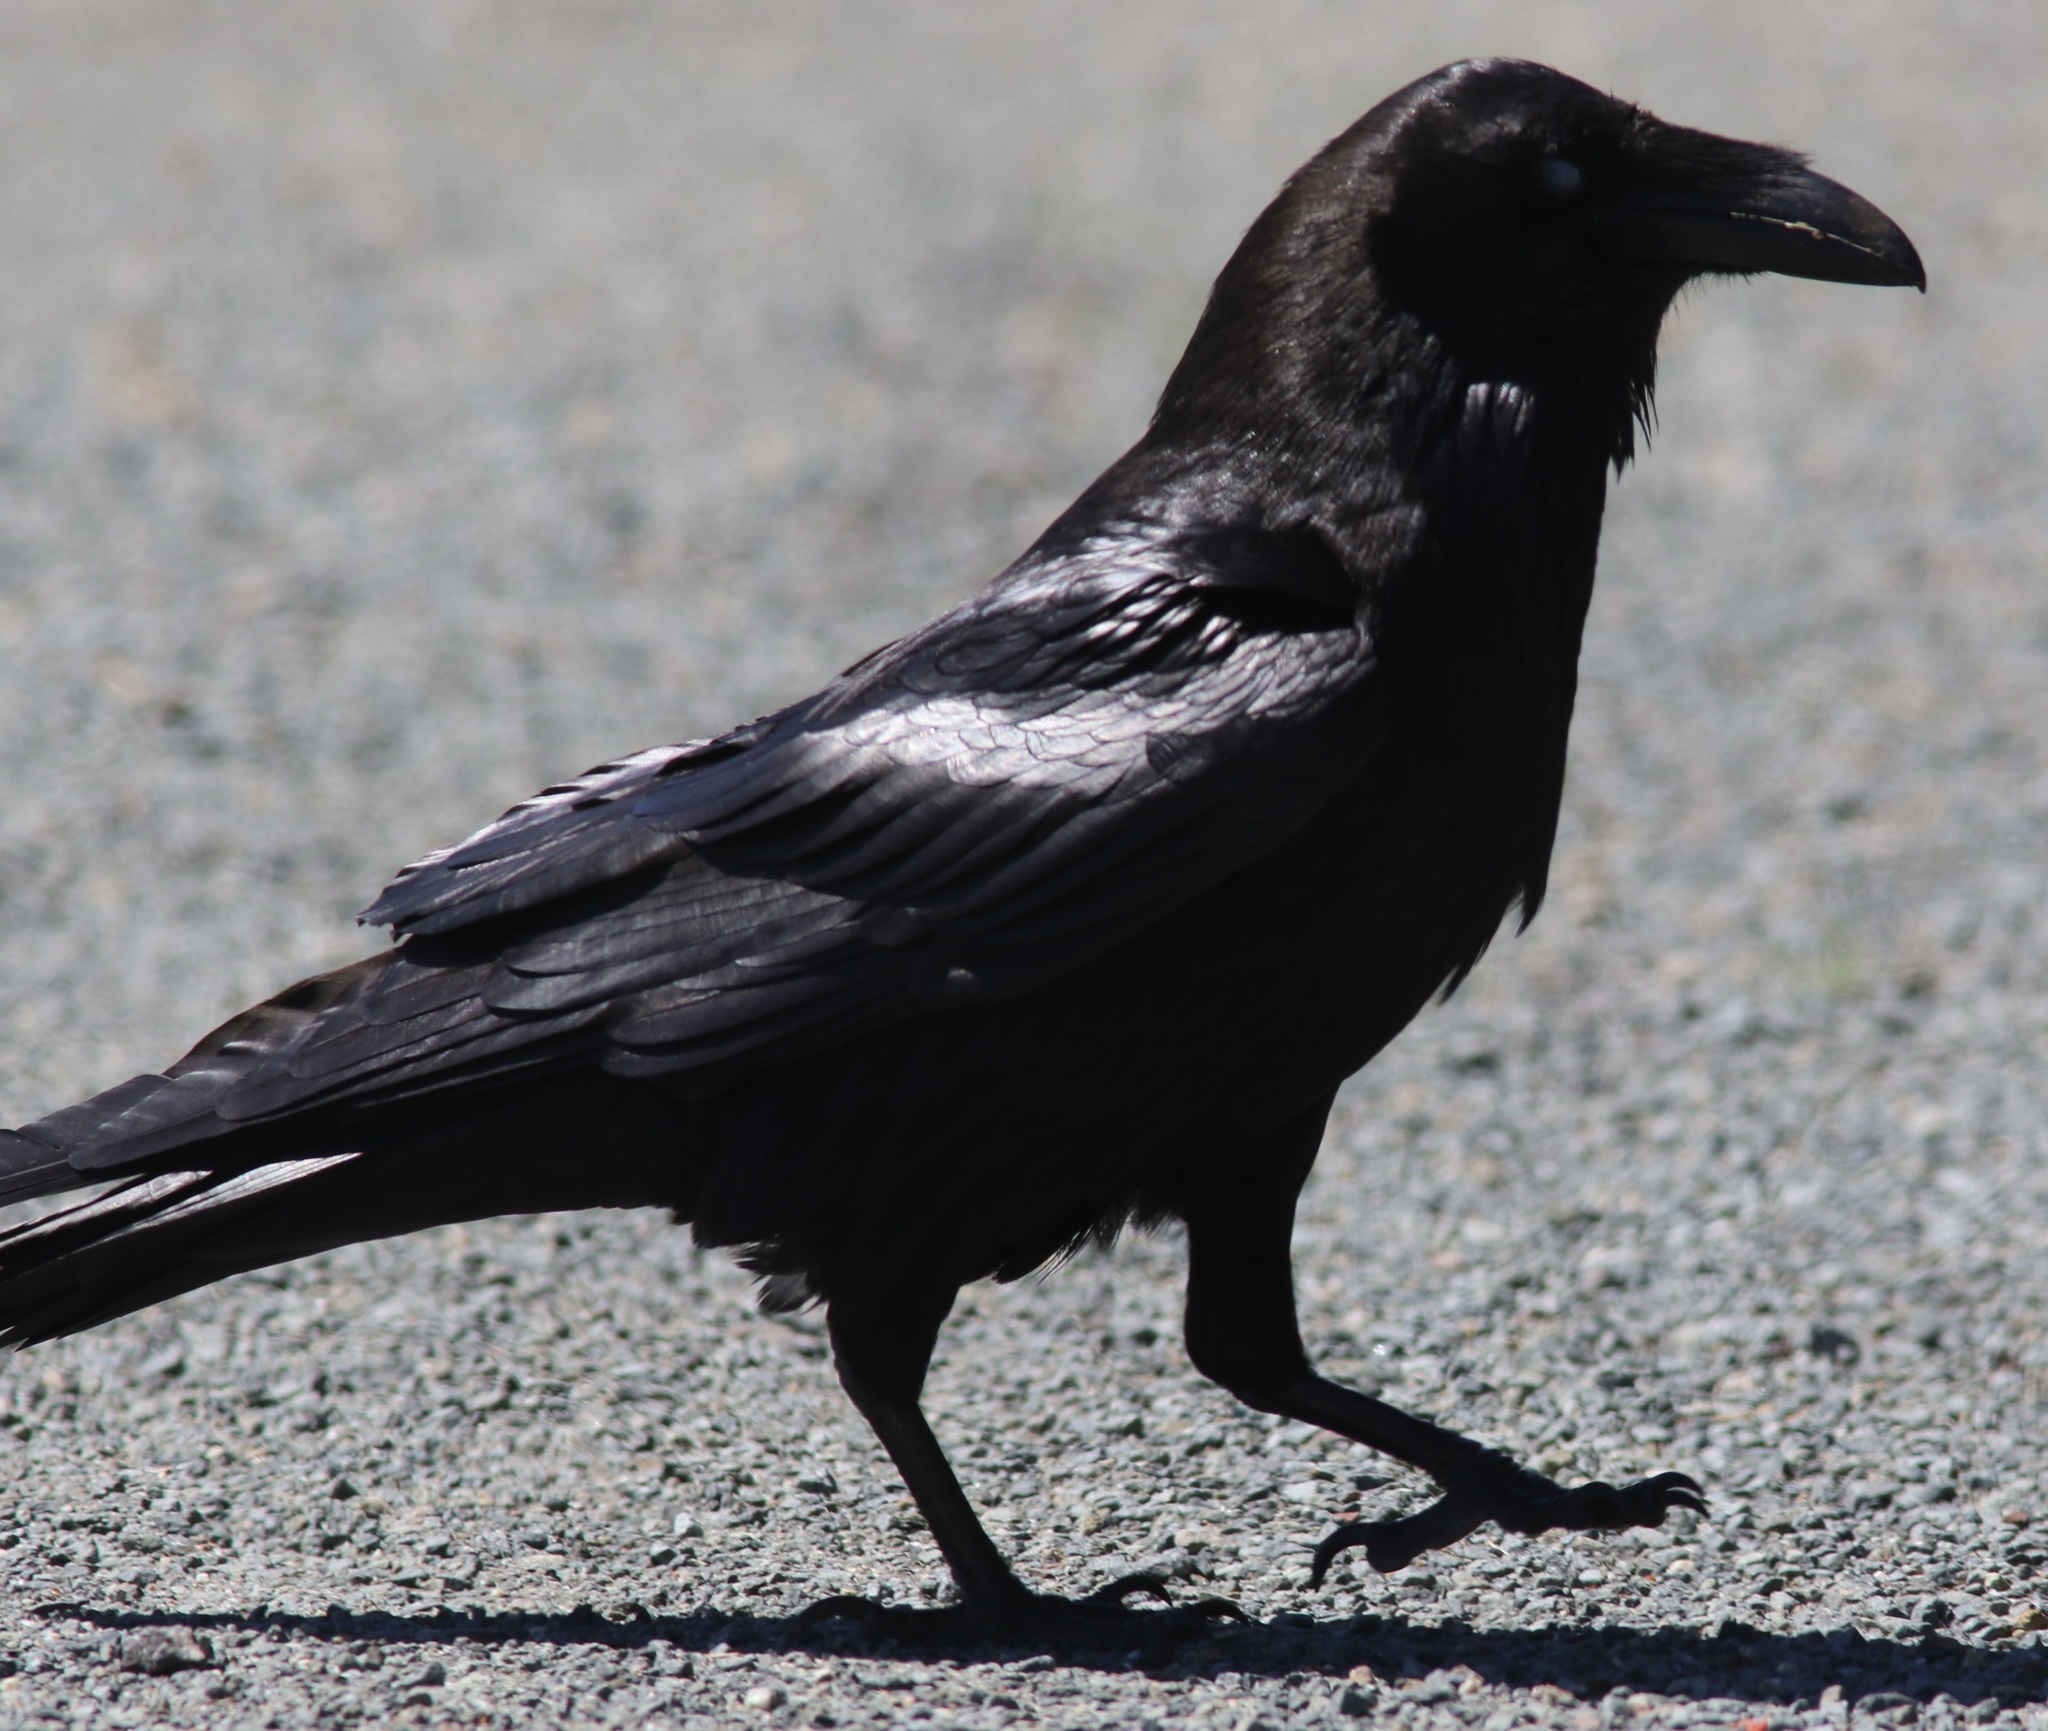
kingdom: Animalia
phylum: Chordata
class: Aves
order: Passeriformes
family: Corvidae
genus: Corvus
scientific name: Corvus corax
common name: Common raven
